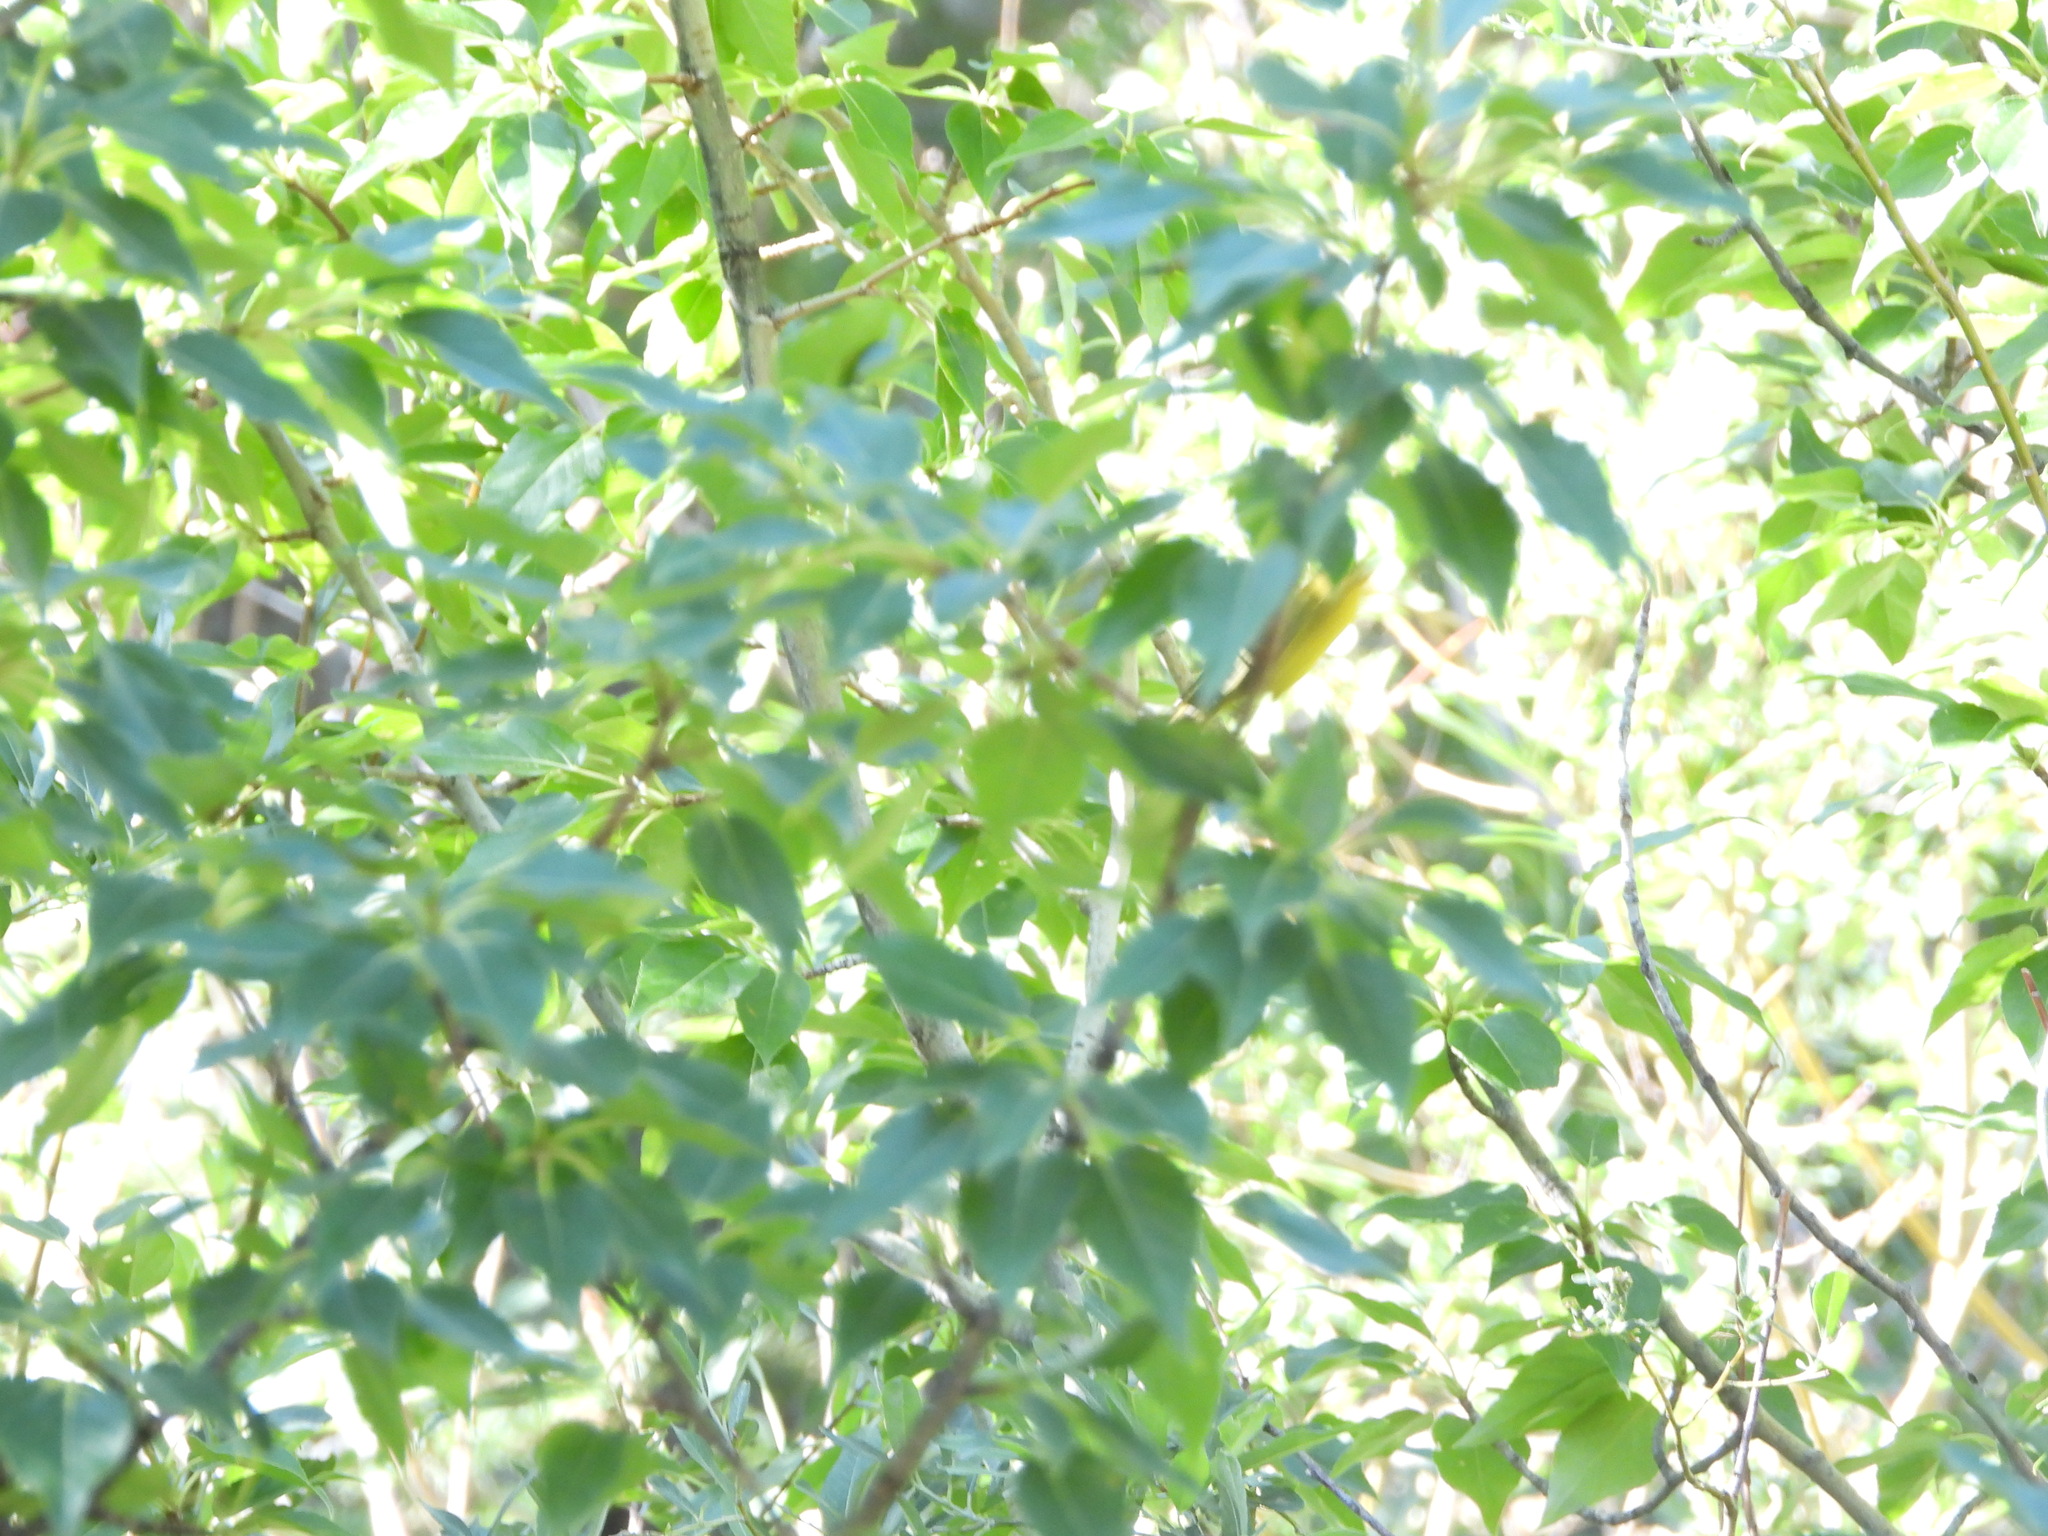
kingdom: Animalia
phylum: Chordata
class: Aves
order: Passeriformes
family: Parulidae
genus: Cardellina
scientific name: Cardellina pusilla
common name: Wilson's warbler
